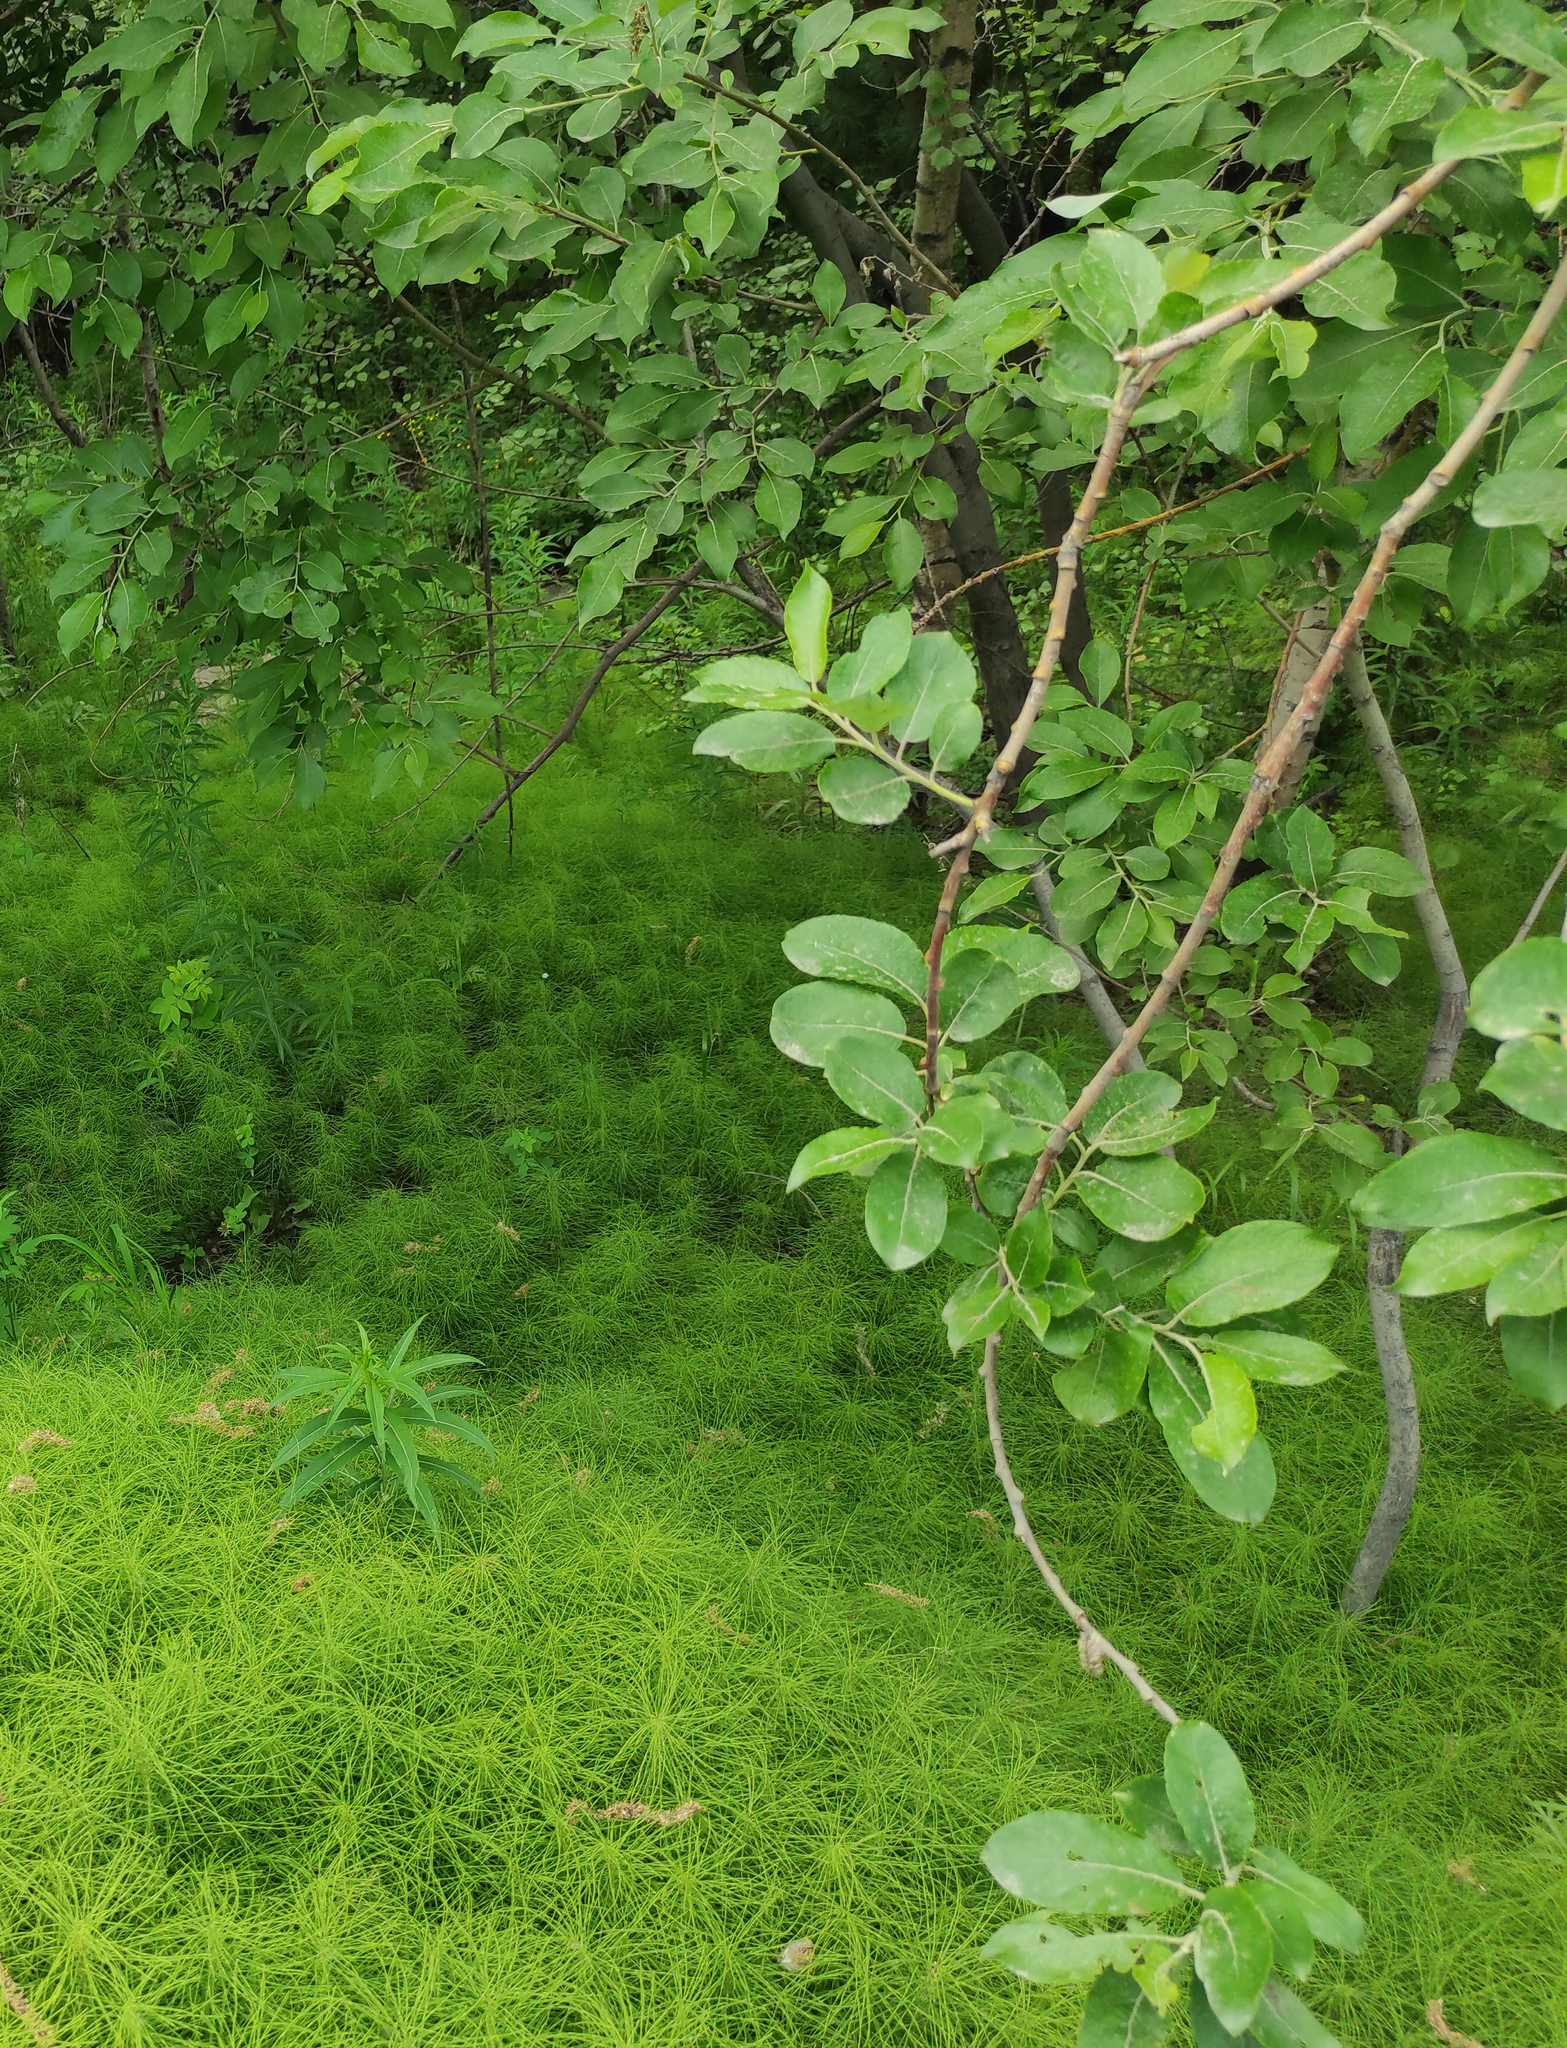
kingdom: Plantae
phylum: Tracheophyta
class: Magnoliopsida
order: Malpighiales
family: Salicaceae
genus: Salix
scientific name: Salix caprea
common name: Goat willow
